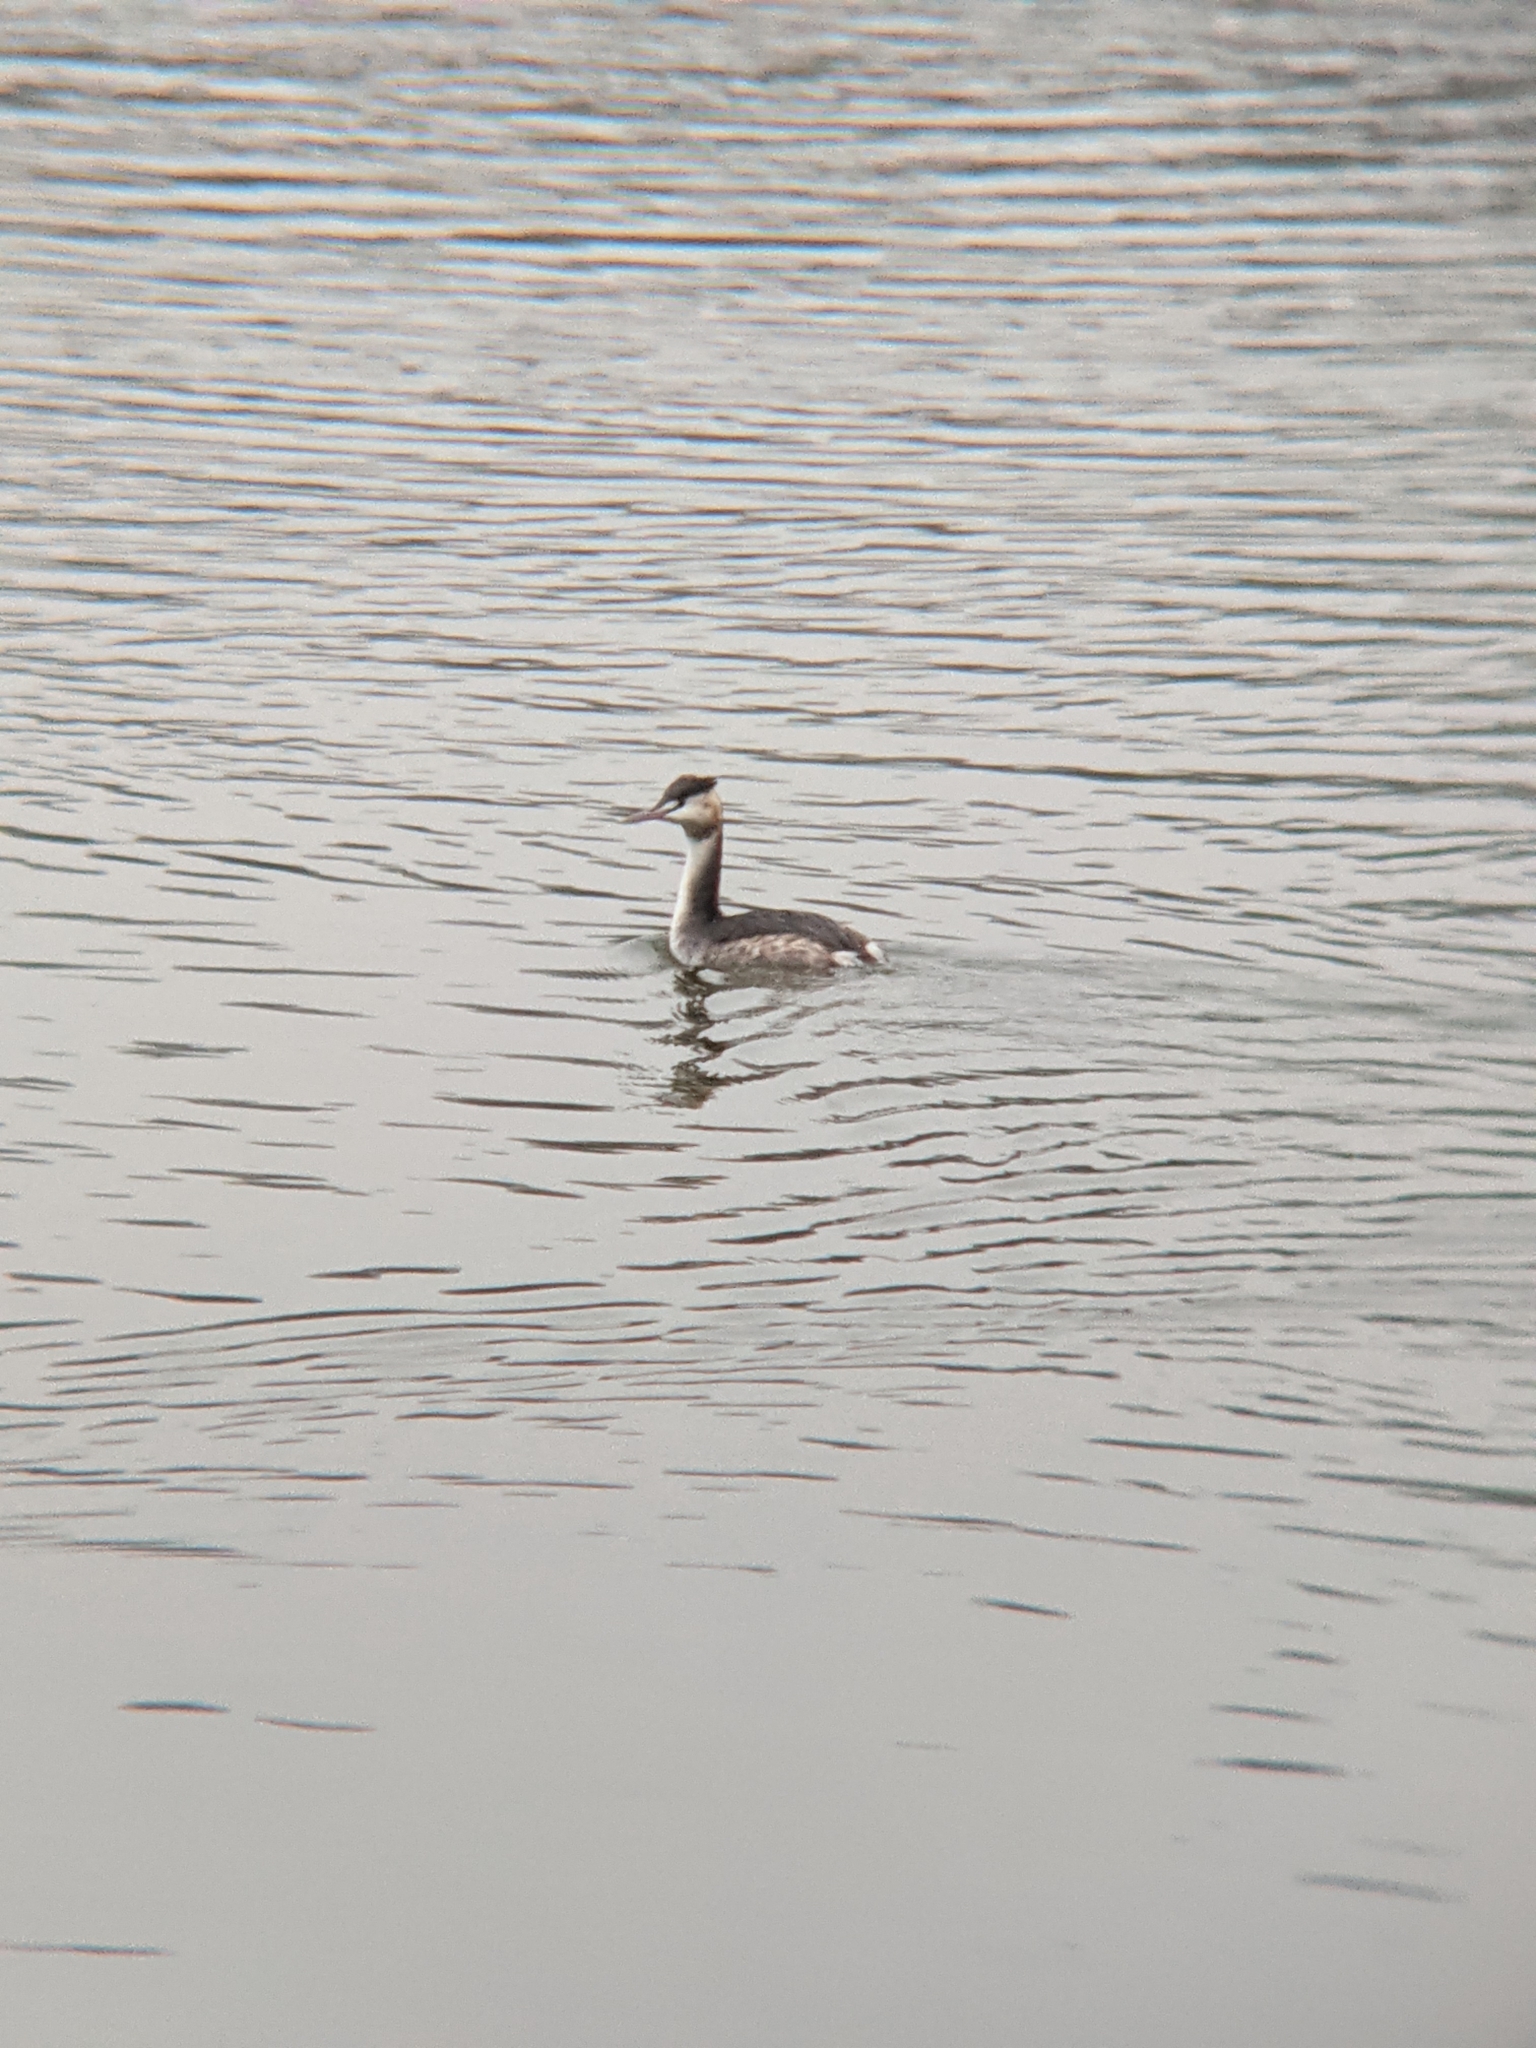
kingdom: Animalia
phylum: Chordata
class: Aves
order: Podicipediformes
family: Podicipedidae
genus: Podiceps
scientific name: Podiceps cristatus
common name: Great crested grebe
